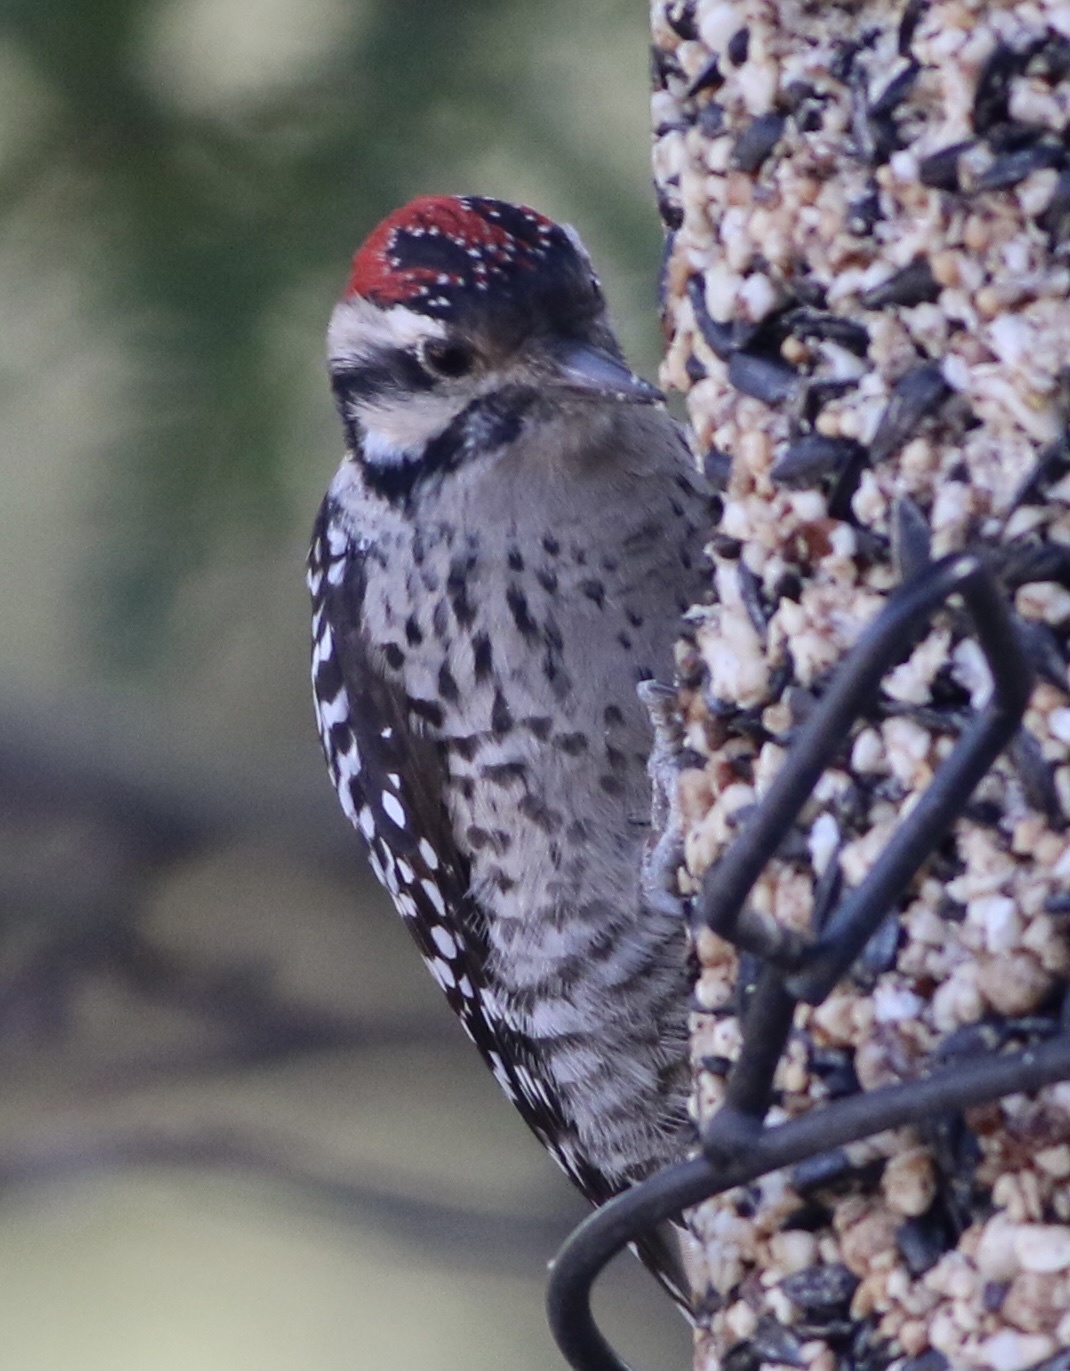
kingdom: Animalia
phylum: Chordata
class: Aves
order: Piciformes
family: Picidae
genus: Dryobates
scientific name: Dryobates scalaris
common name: Ladder-backed woodpecker
